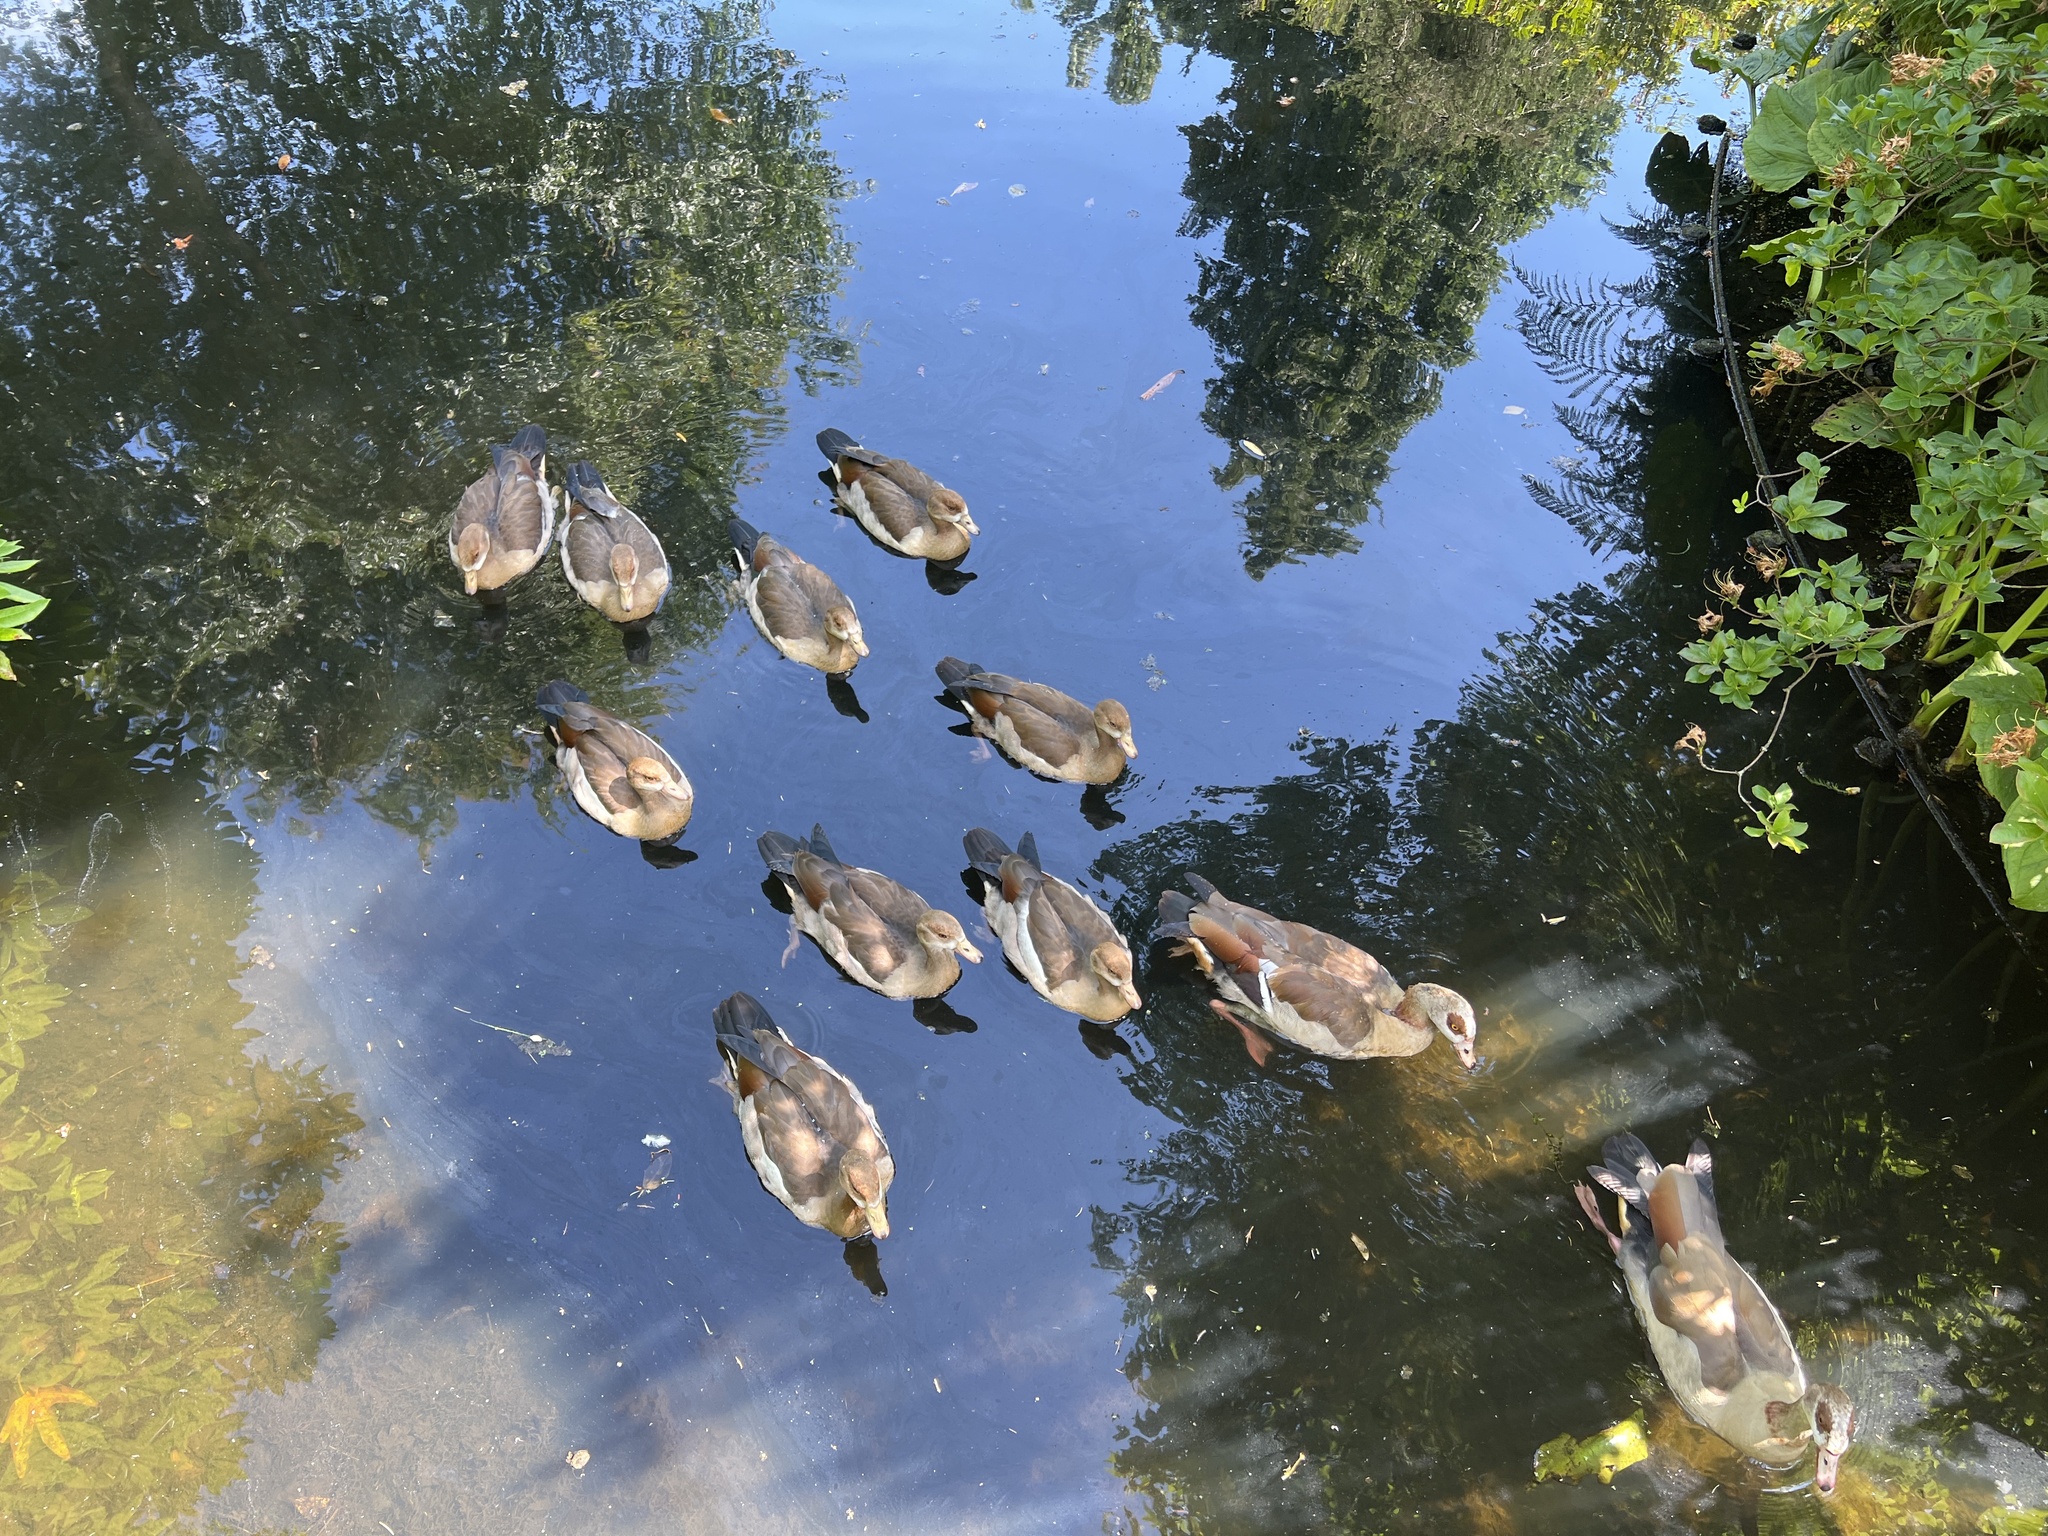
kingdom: Animalia
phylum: Chordata
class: Aves
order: Anseriformes
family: Anatidae
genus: Alopochen
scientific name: Alopochen aegyptiaca
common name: Egyptian goose
